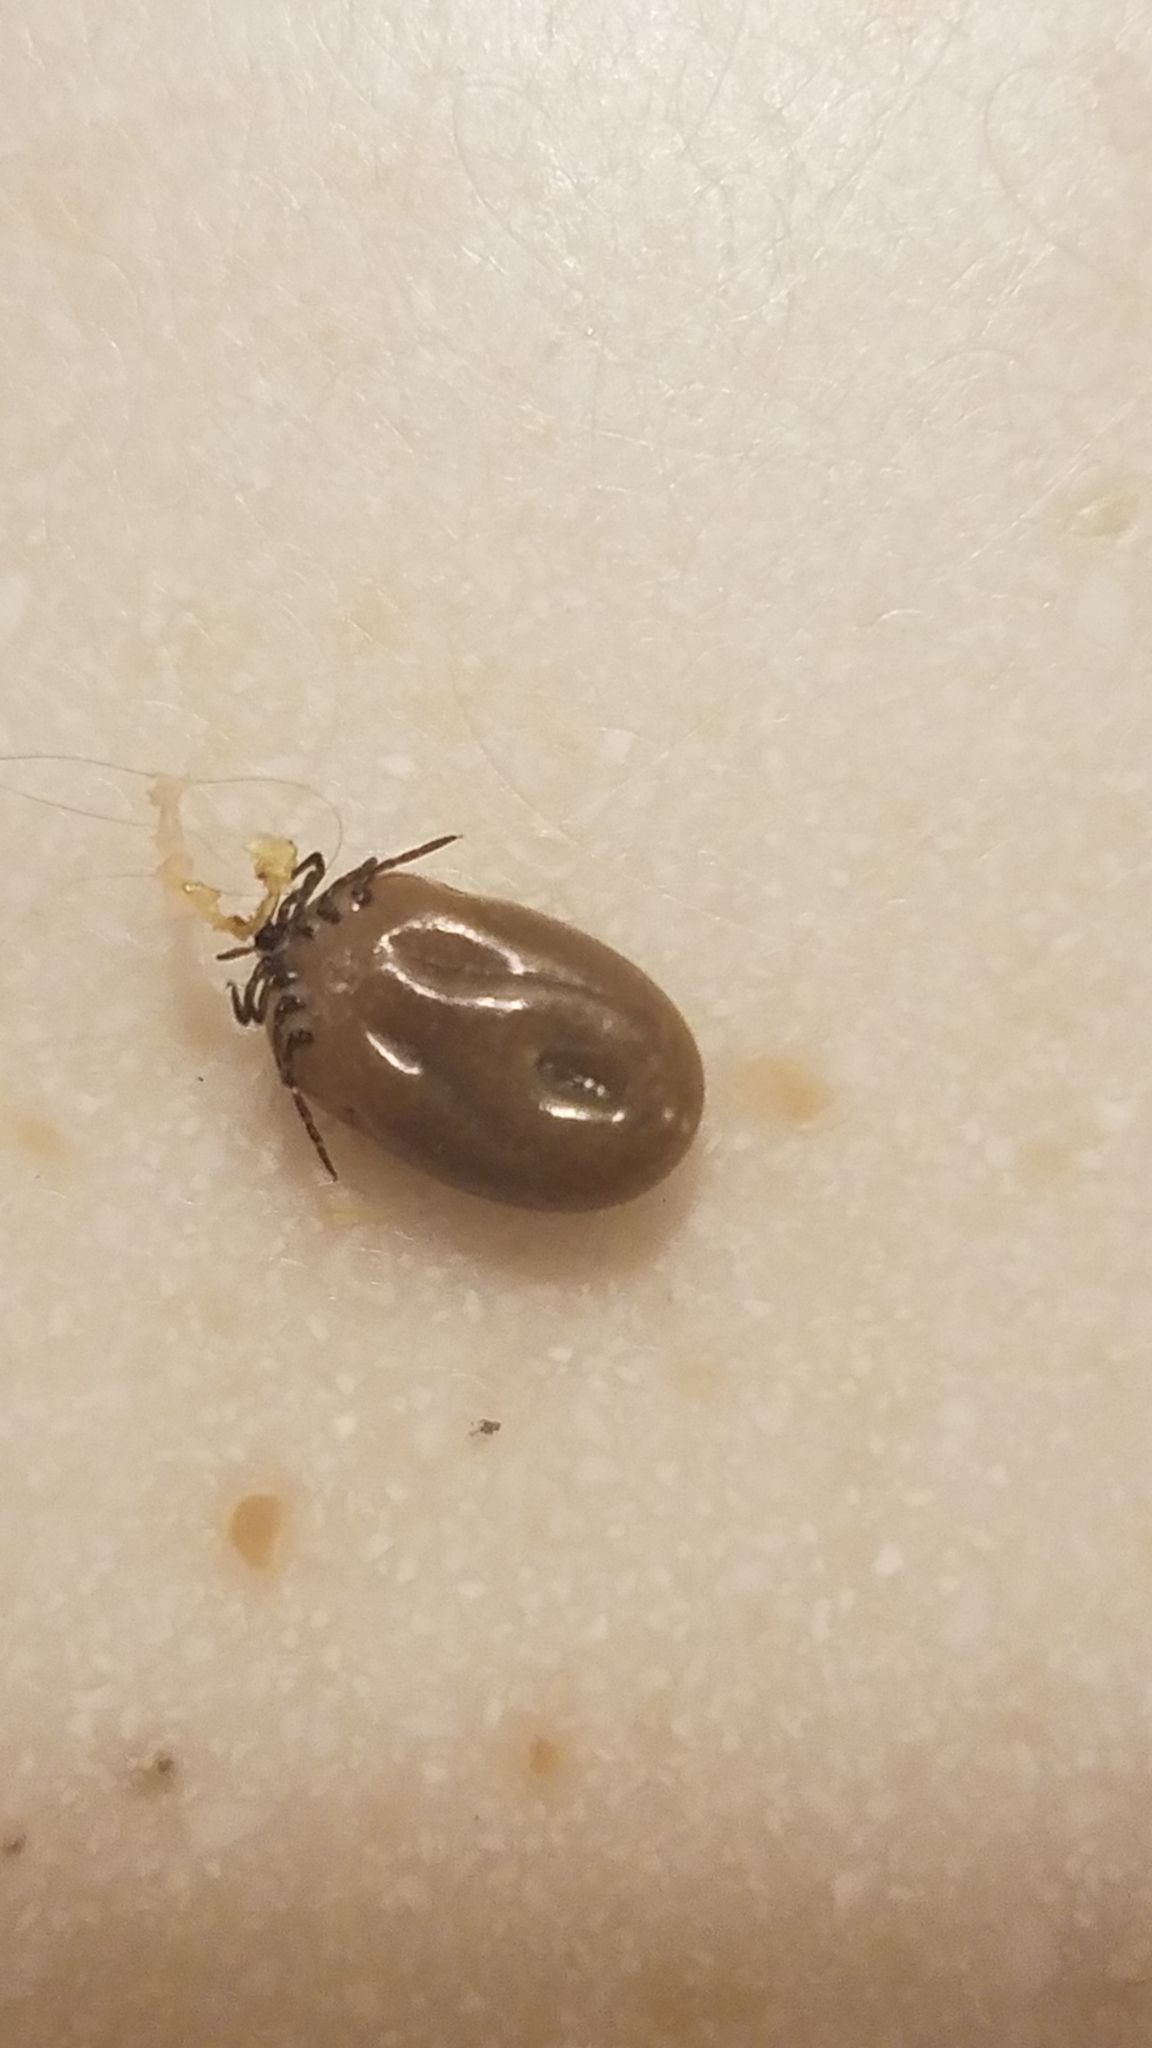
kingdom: Animalia
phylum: Arthropoda
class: Arachnida
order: Ixodida
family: Ixodidae
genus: Ixodes
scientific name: Ixodes scapularis
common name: Black legged tick
